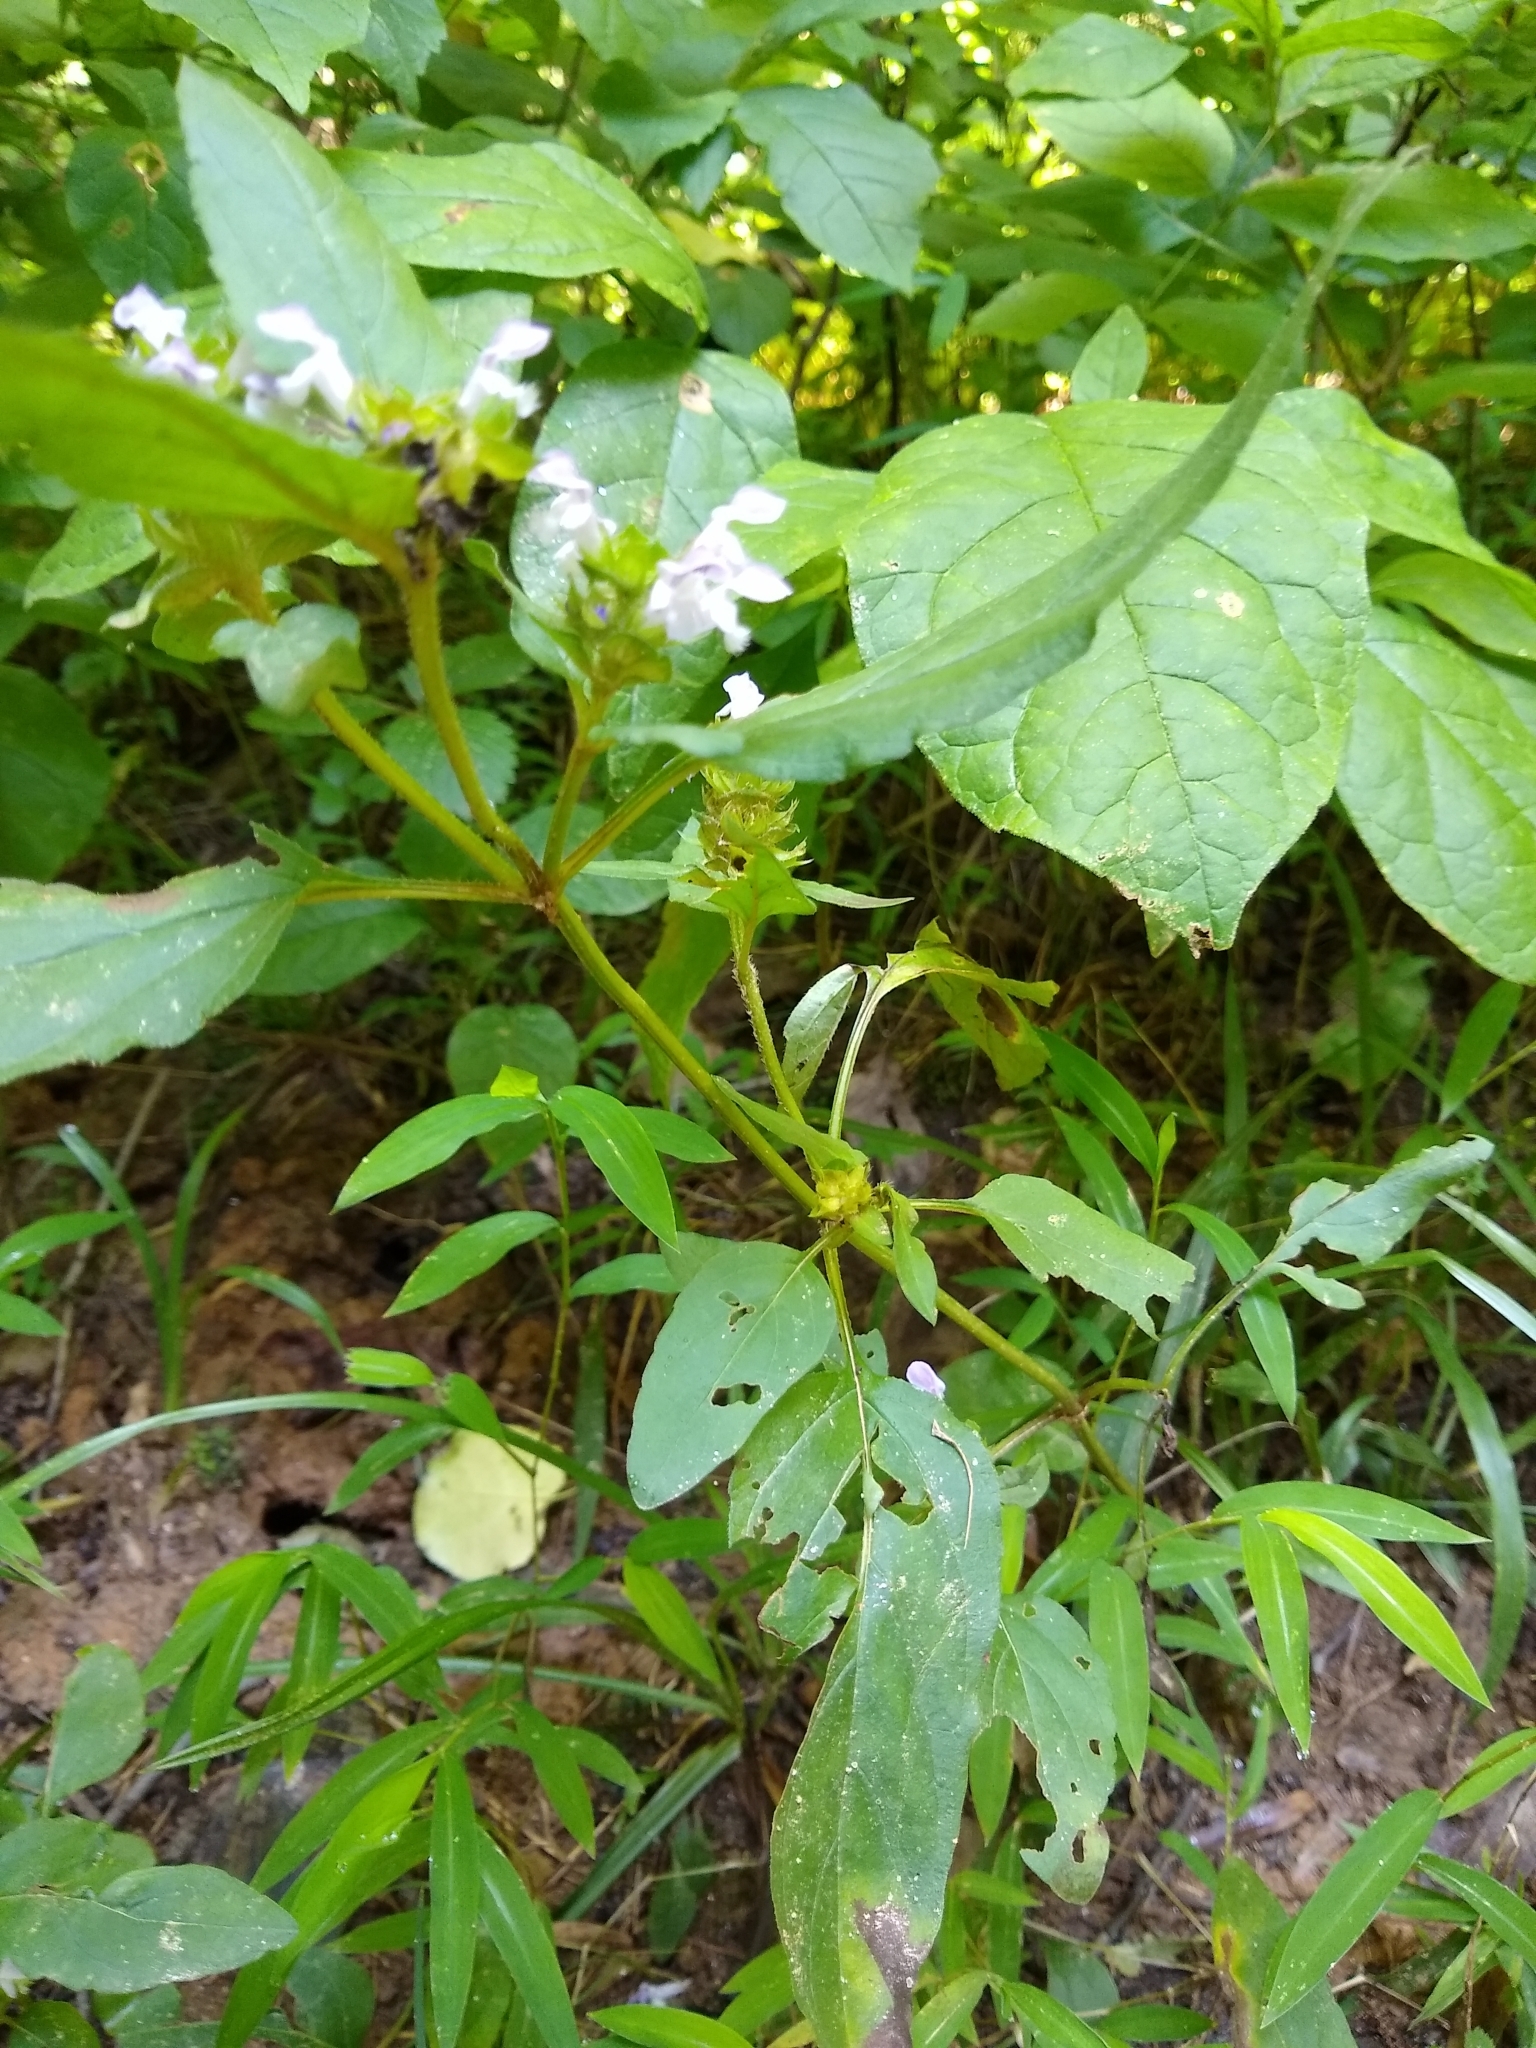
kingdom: Plantae
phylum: Tracheophyta
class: Magnoliopsida
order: Lamiales
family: Lamiaceae
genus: Prunella
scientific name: Prunella vulgaris
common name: Heal-all
